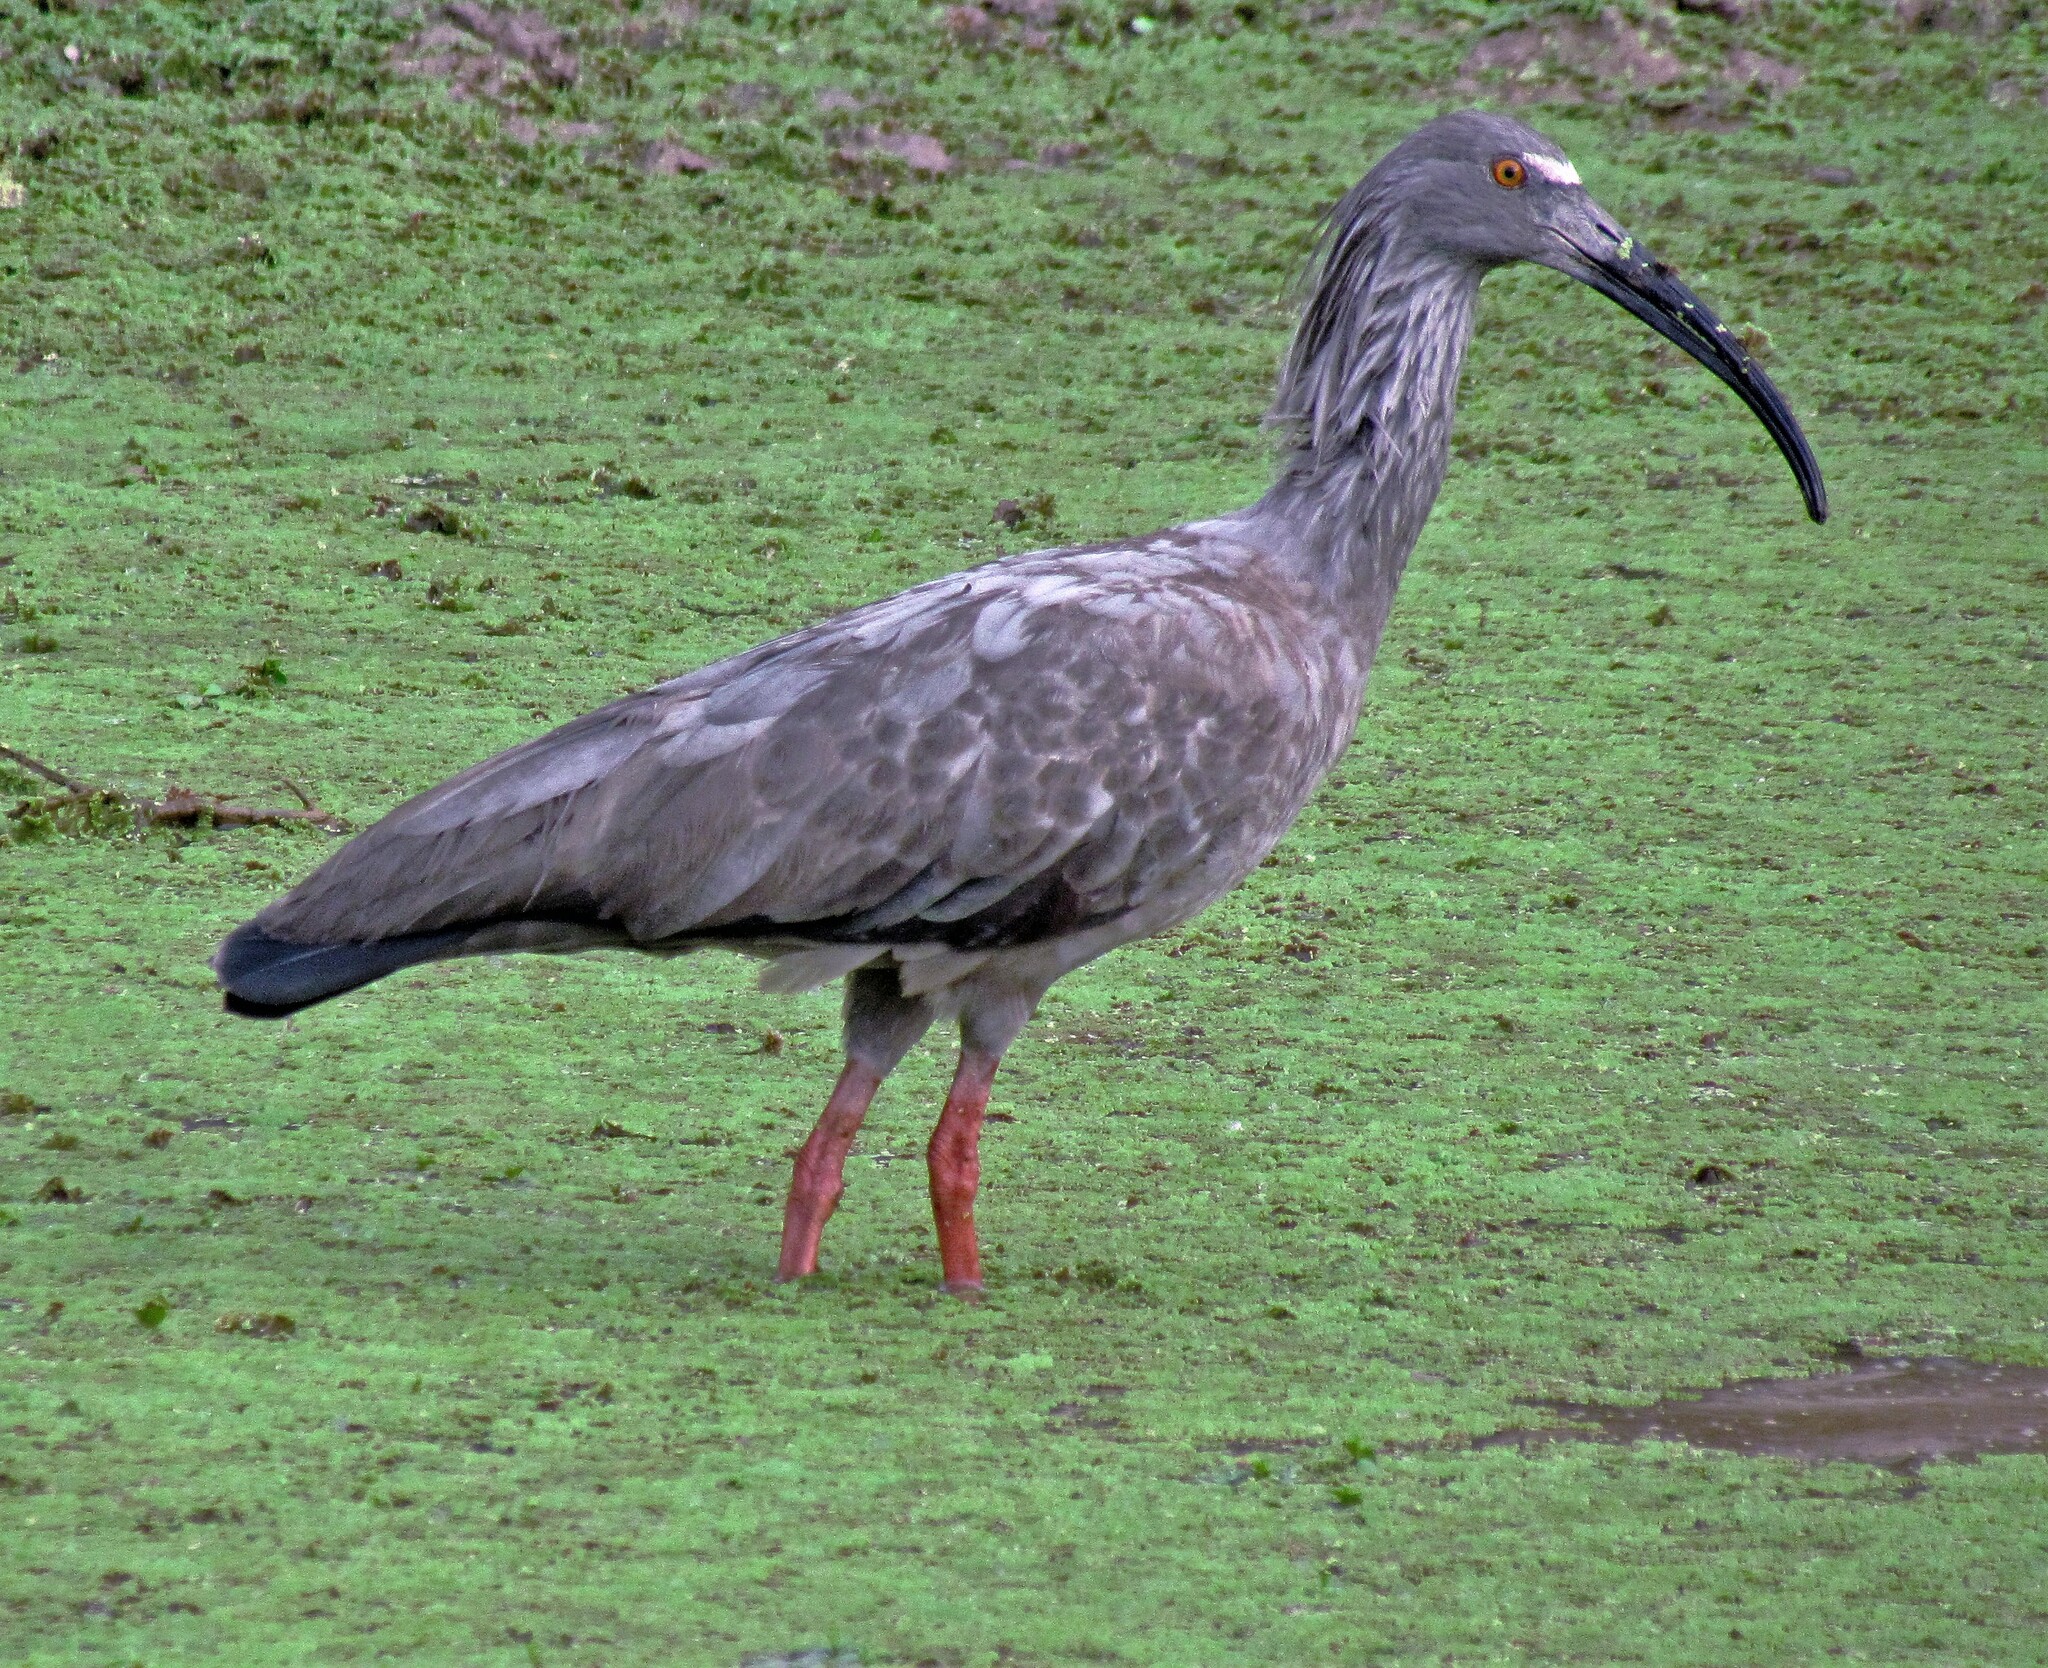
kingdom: Animalia
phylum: Chordata
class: Aves
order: Pelecaniformes
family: Threskiornithidae
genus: Theristicus
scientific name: Theristicus caerulescens
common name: Plumbeous ibis
